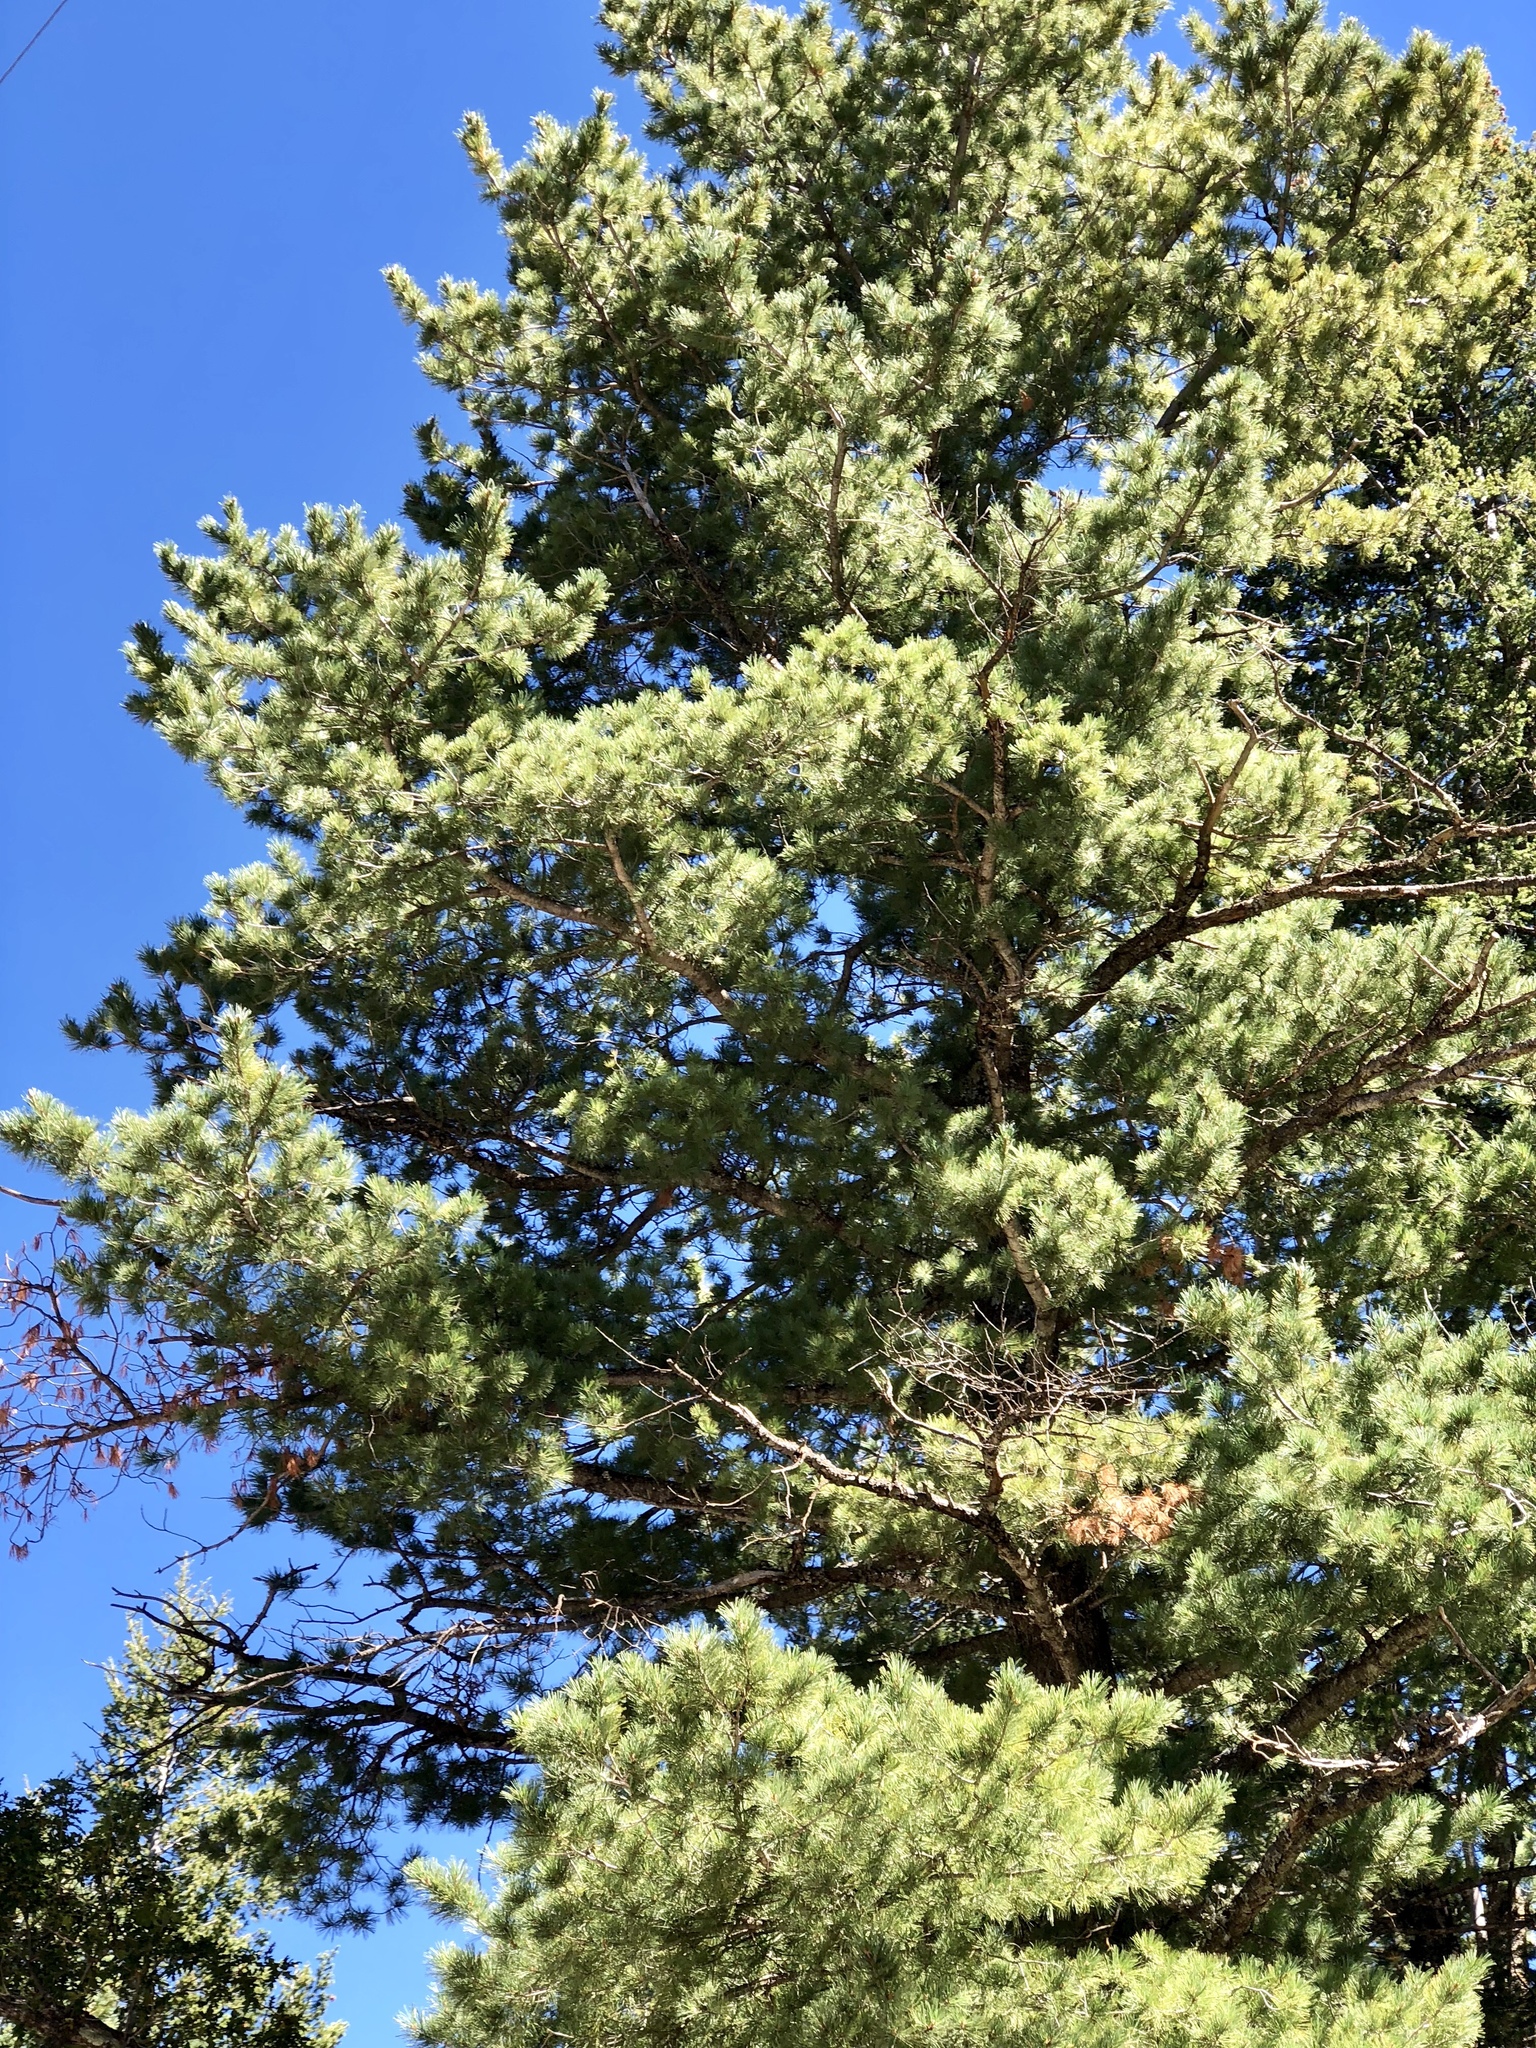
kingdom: Plantae
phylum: Tracheophyta
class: Pinopsida
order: Pinales
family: Pinaceae
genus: Pinus
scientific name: Pinus strobiformis
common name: Southwestern white pine
